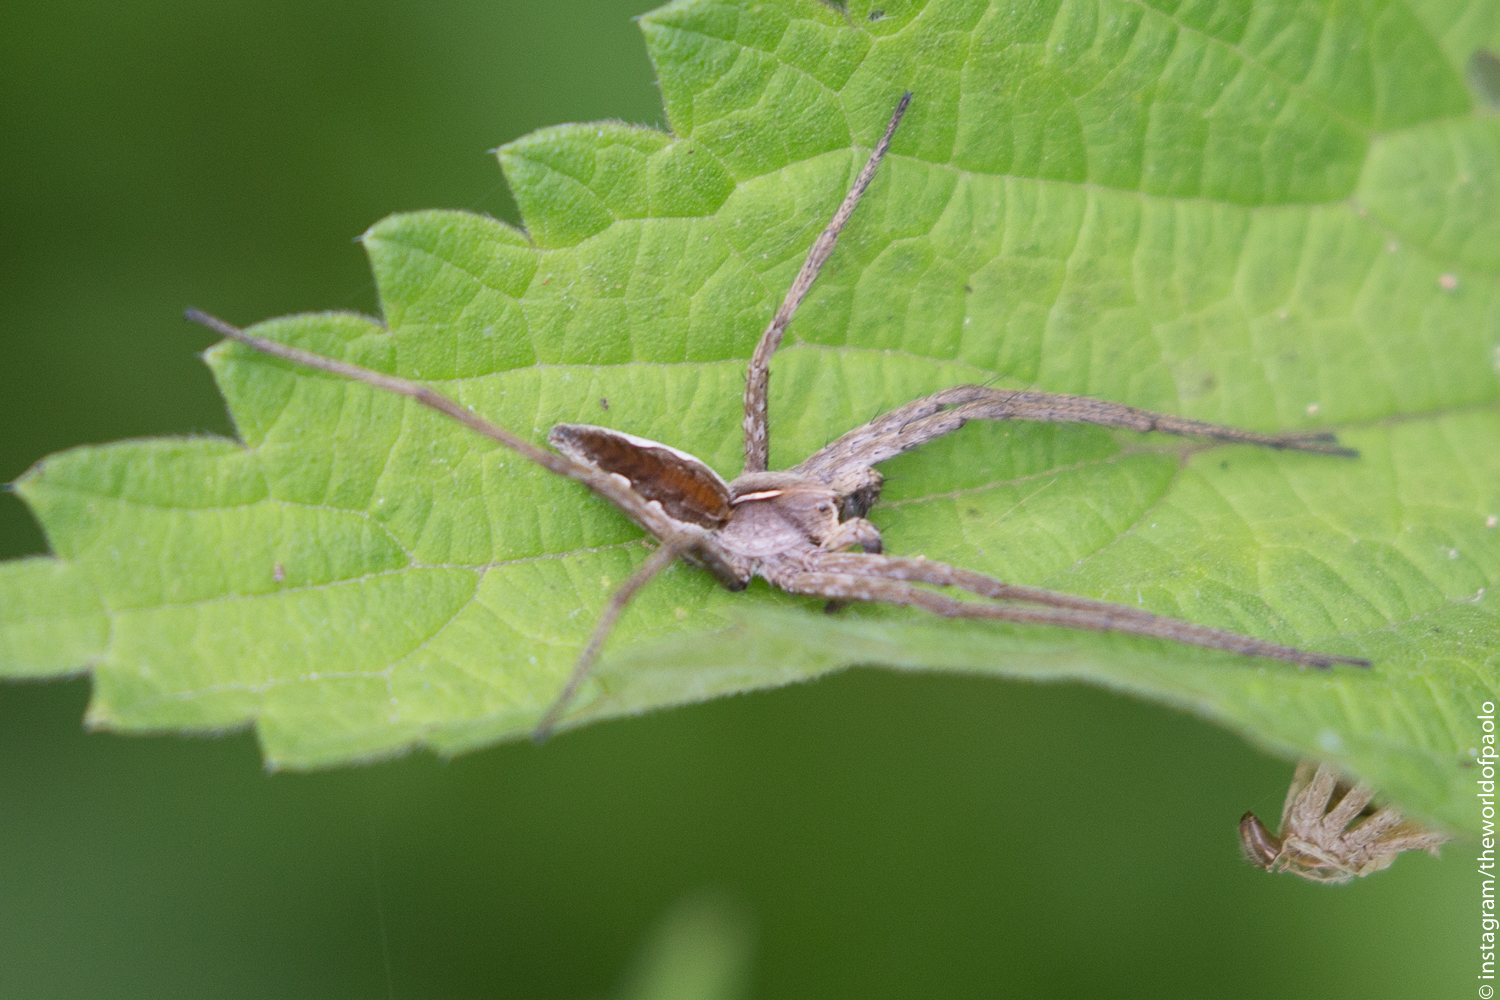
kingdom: Animalia
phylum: Arthropoda
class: Arachnida
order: Araneae
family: Pisauridae
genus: Pisaura
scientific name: Pisaura mirabilis
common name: Tent spider
